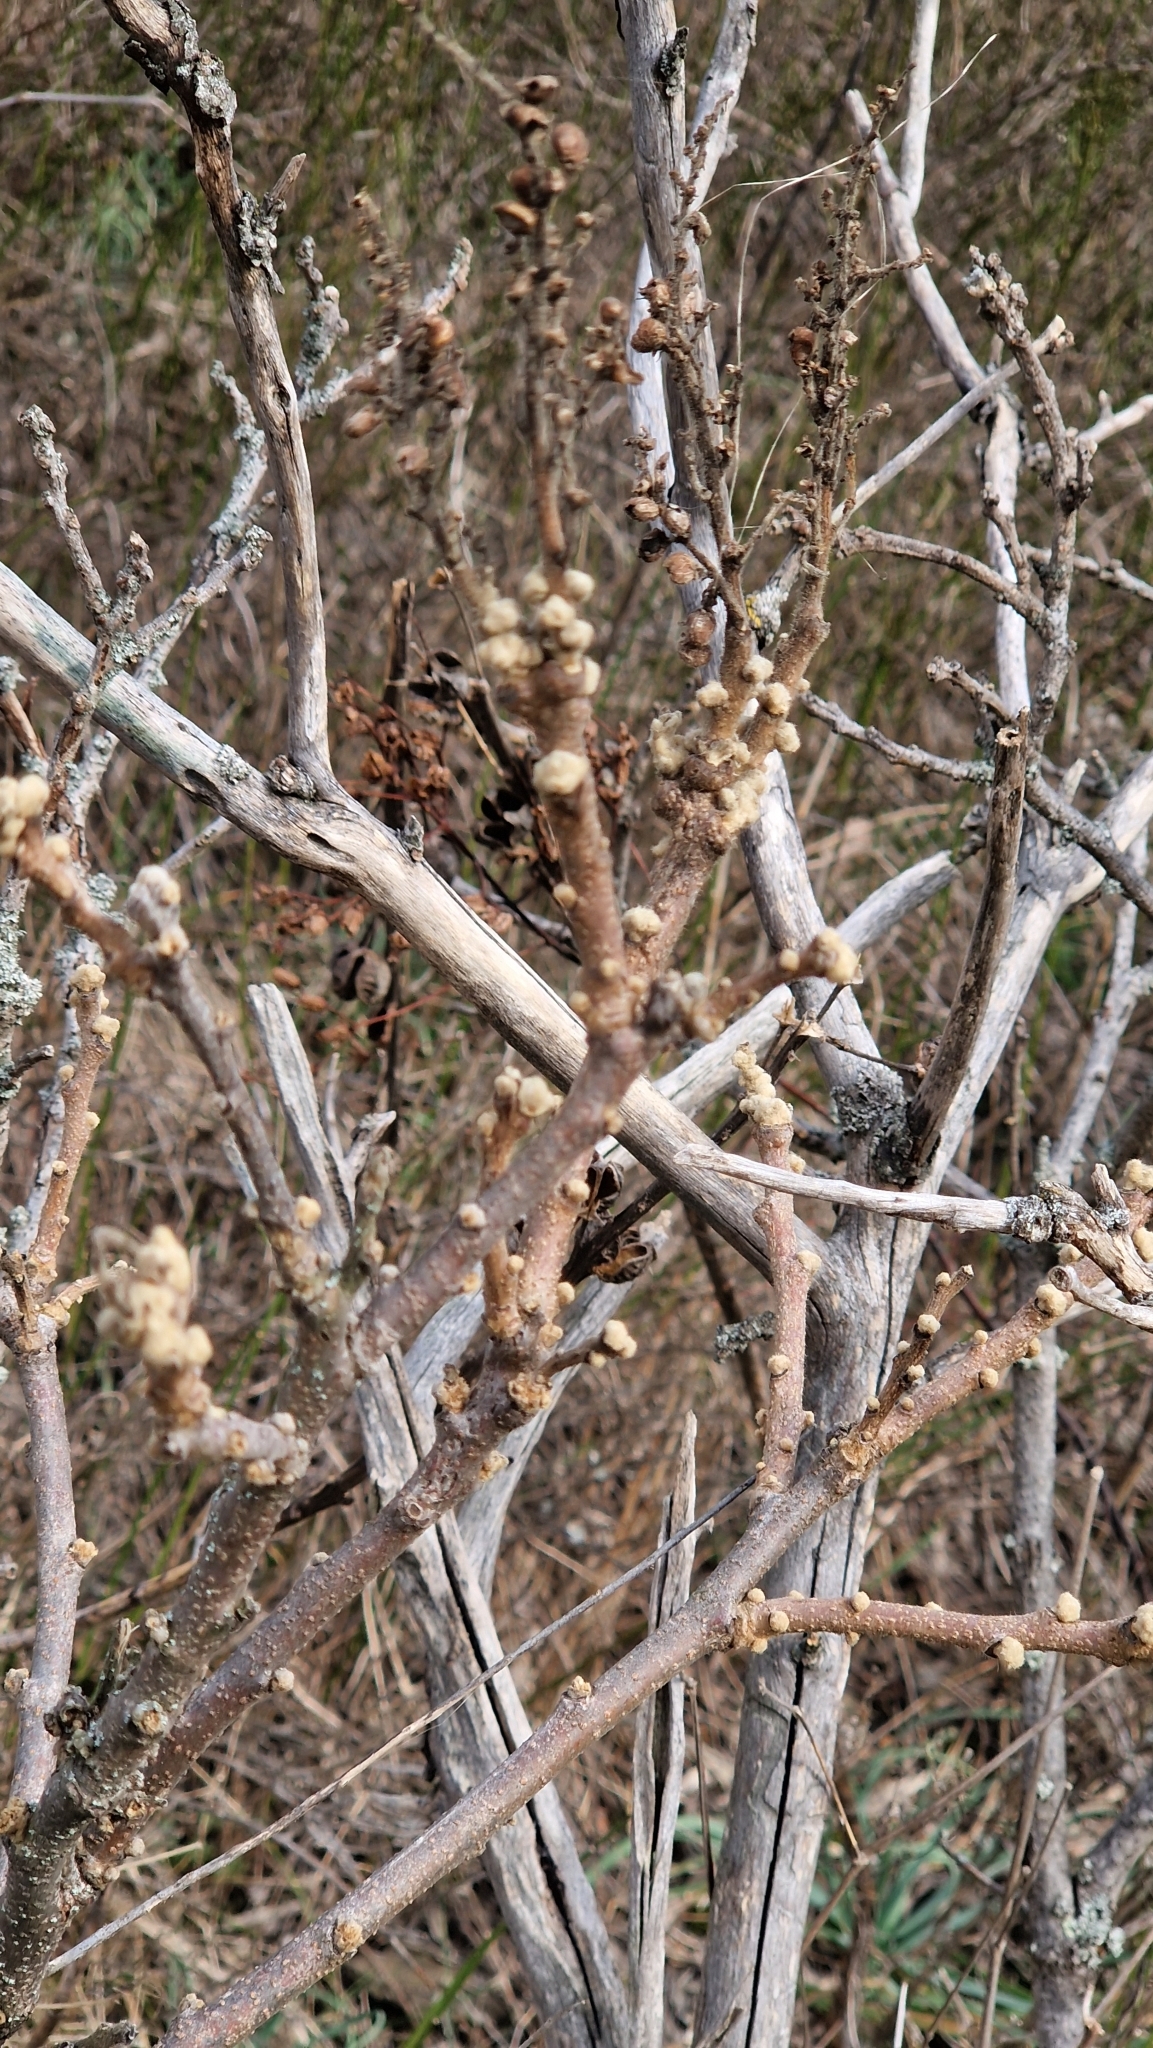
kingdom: Plantae
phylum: Tracheophyta
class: Magnoliopsida
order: Sapindales
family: Anacardiaceae
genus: Rhus
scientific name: Rhus coriaria
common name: Tanner's sumach
